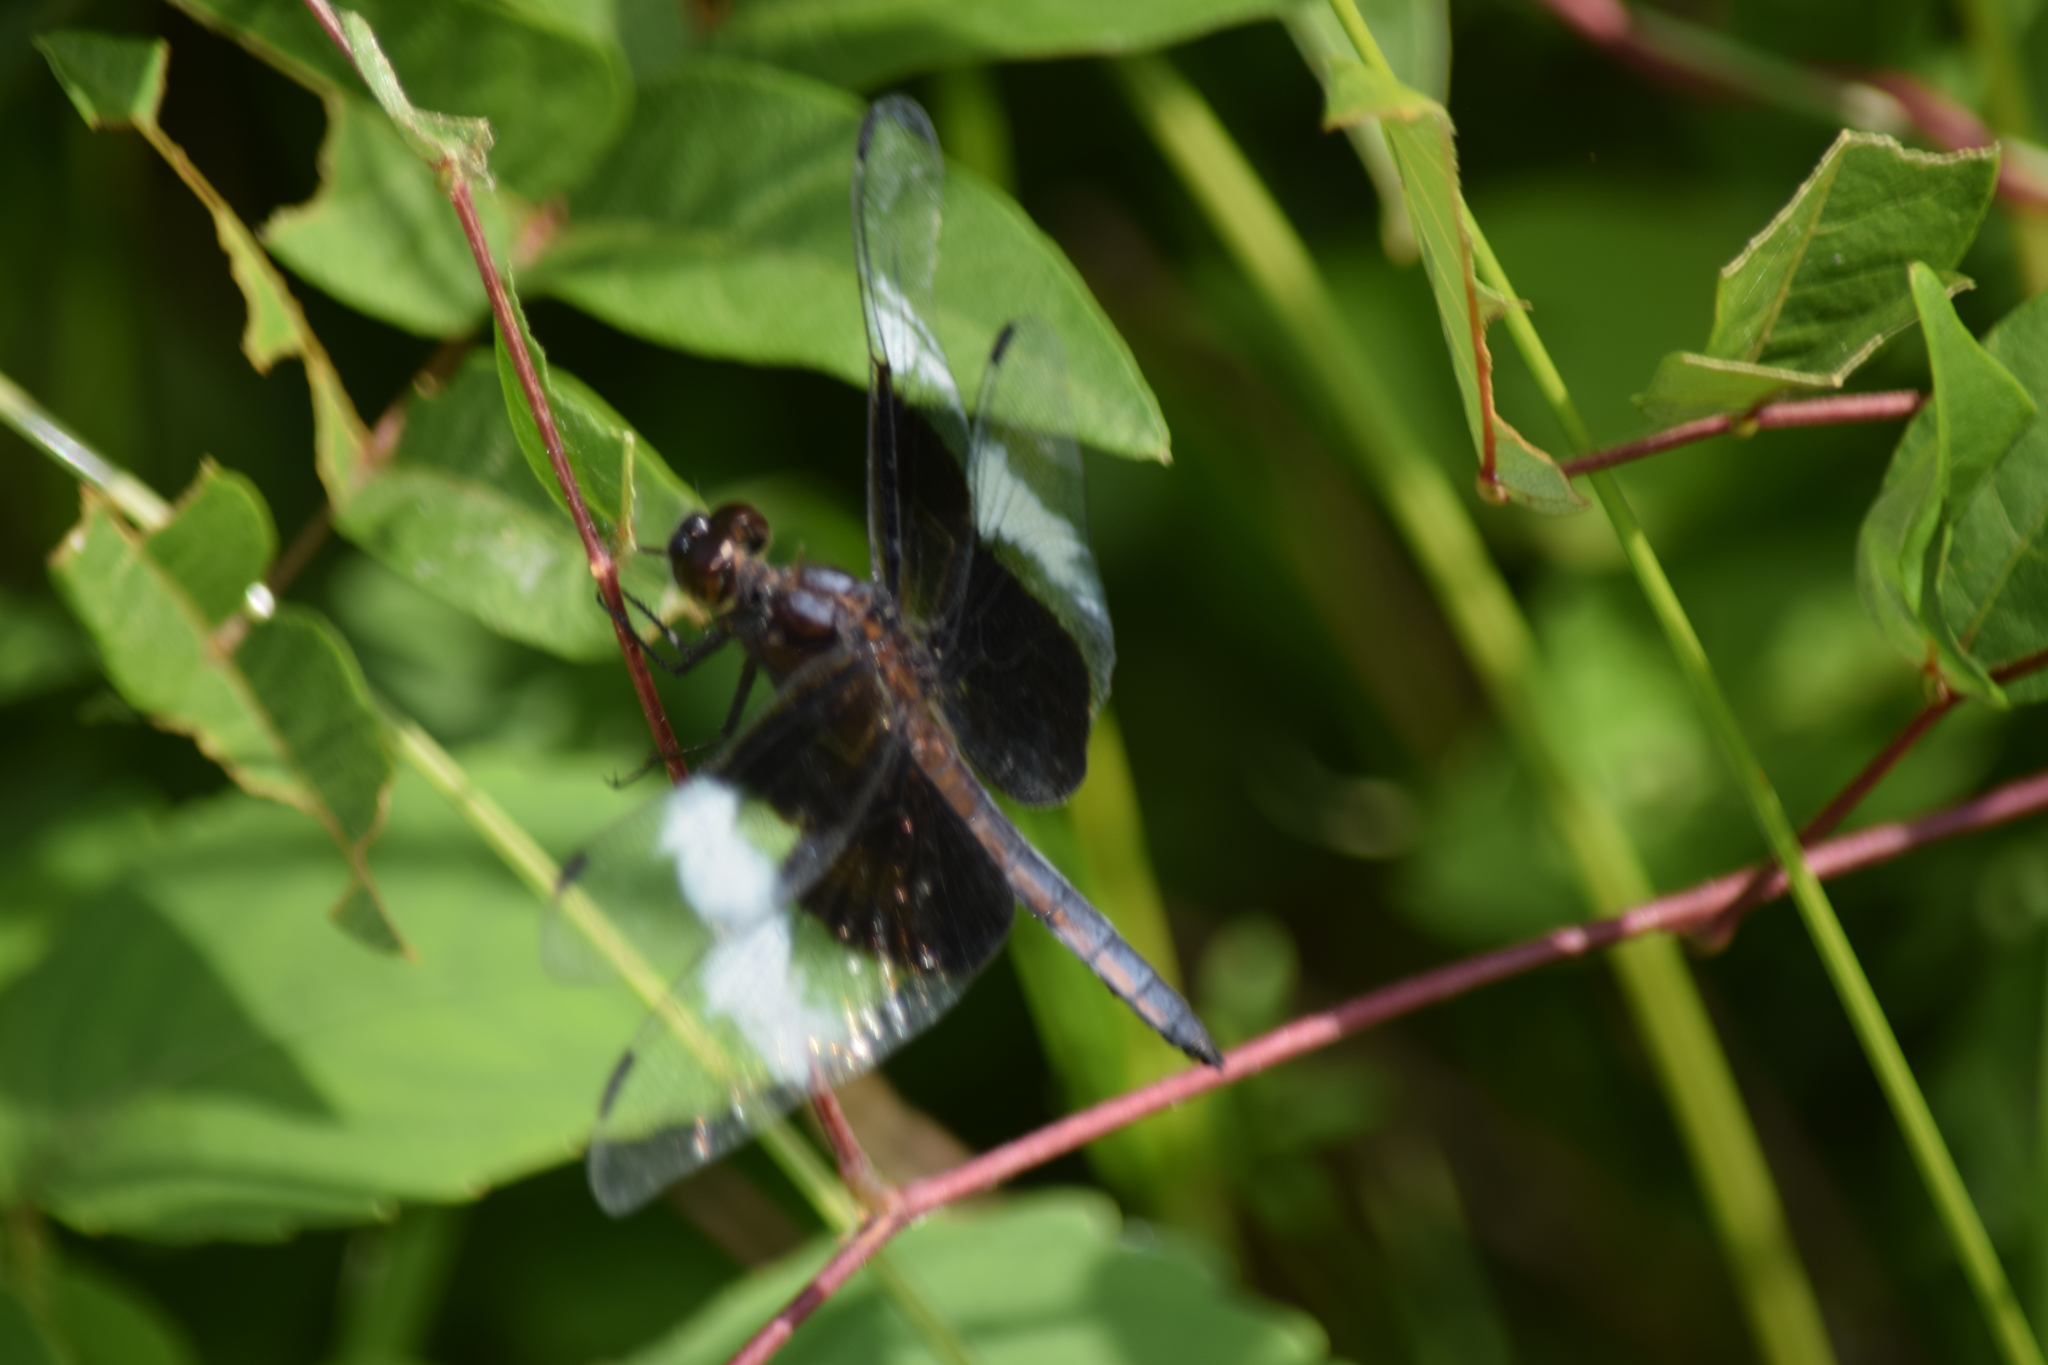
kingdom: Animalia
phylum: Arthropoda
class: Insecta
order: Odonata
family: Libellulidae
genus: Libellula
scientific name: Libellula luctuosa
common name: Widow skimmer
